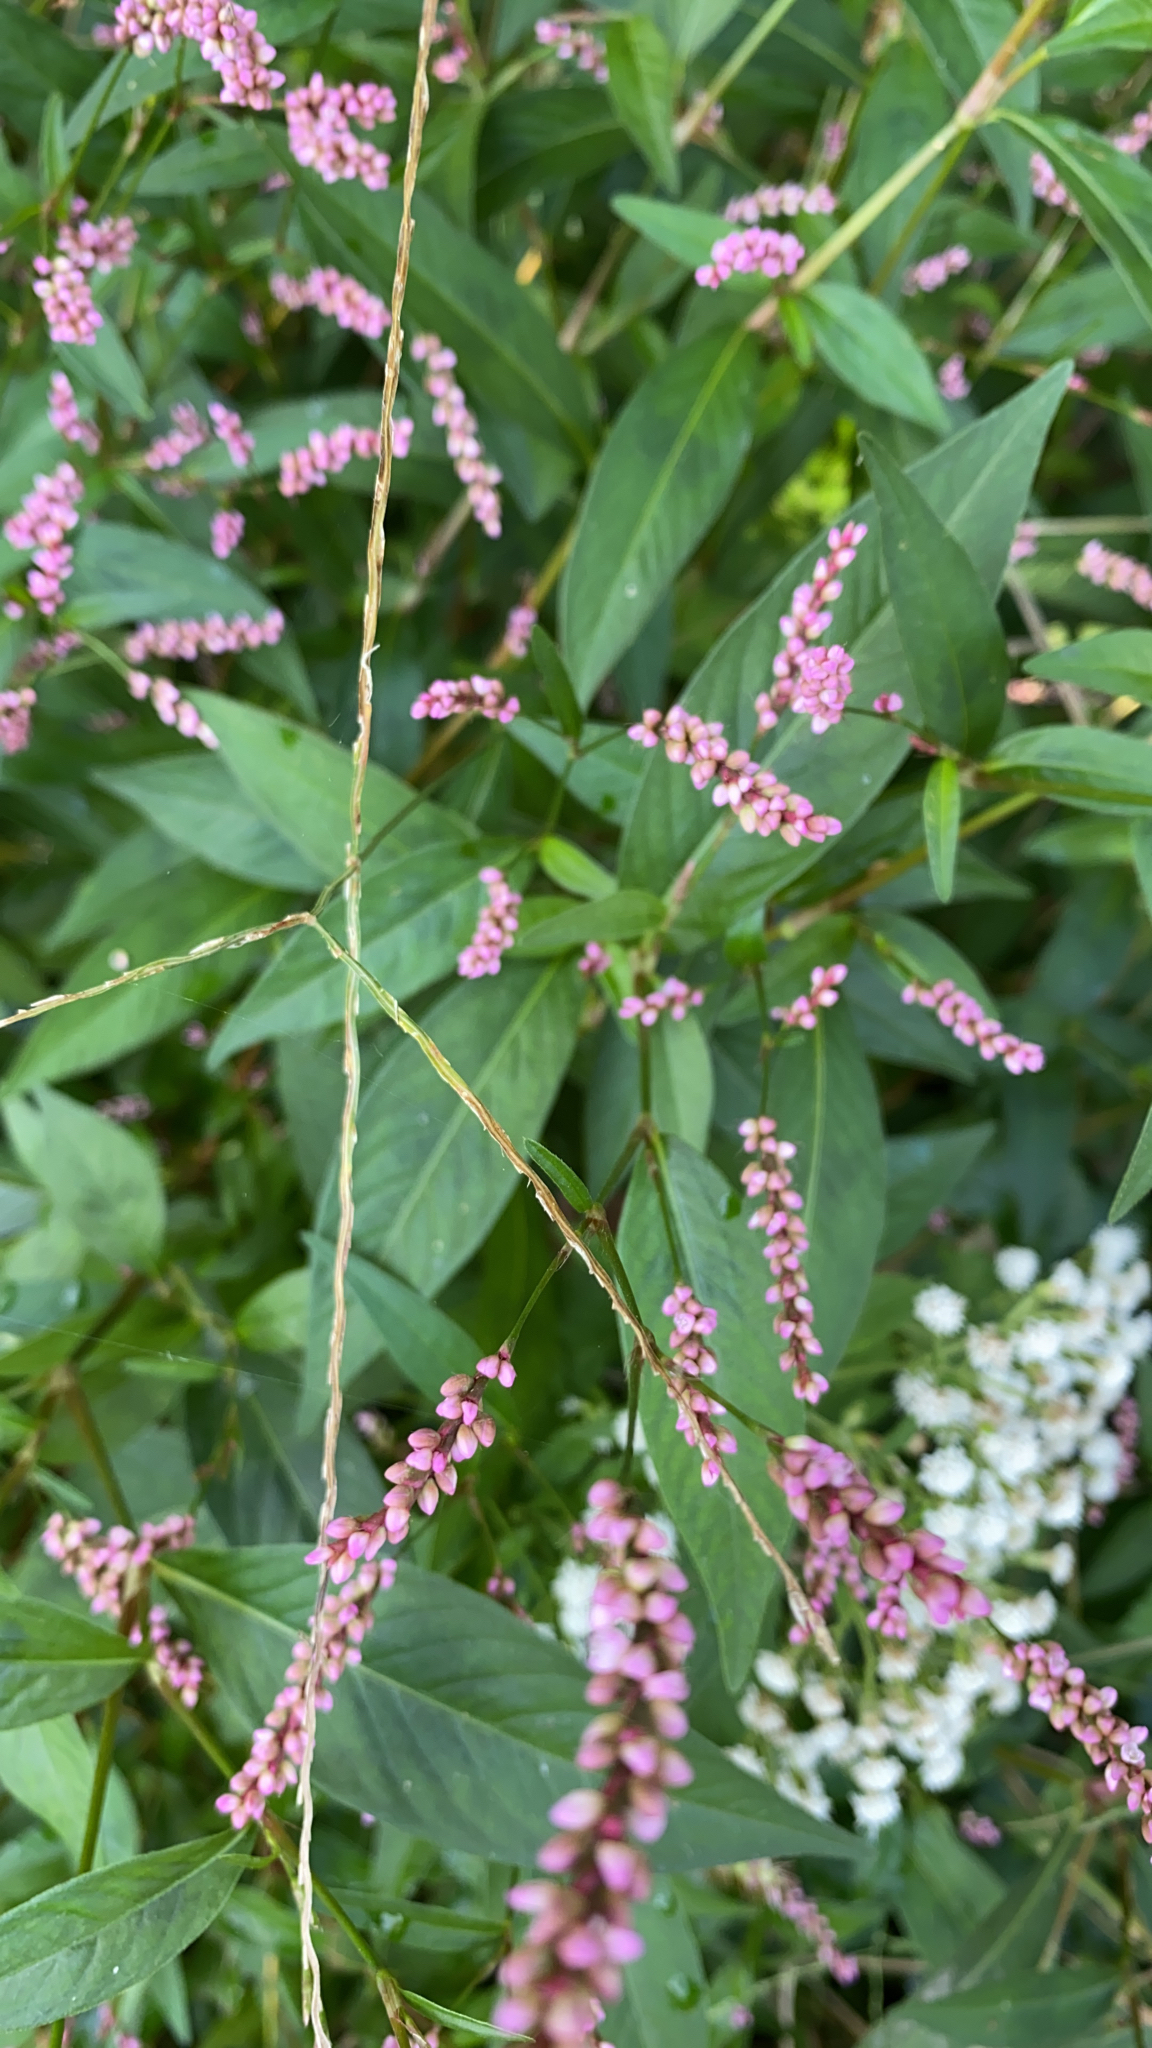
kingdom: Plantae
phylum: Tracheophyta
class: Magnoliopsida
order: Caryophyllales
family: Polygonaceae
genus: Persicaria
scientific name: Persicaria longiseta
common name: Bristly lady's-thumb
